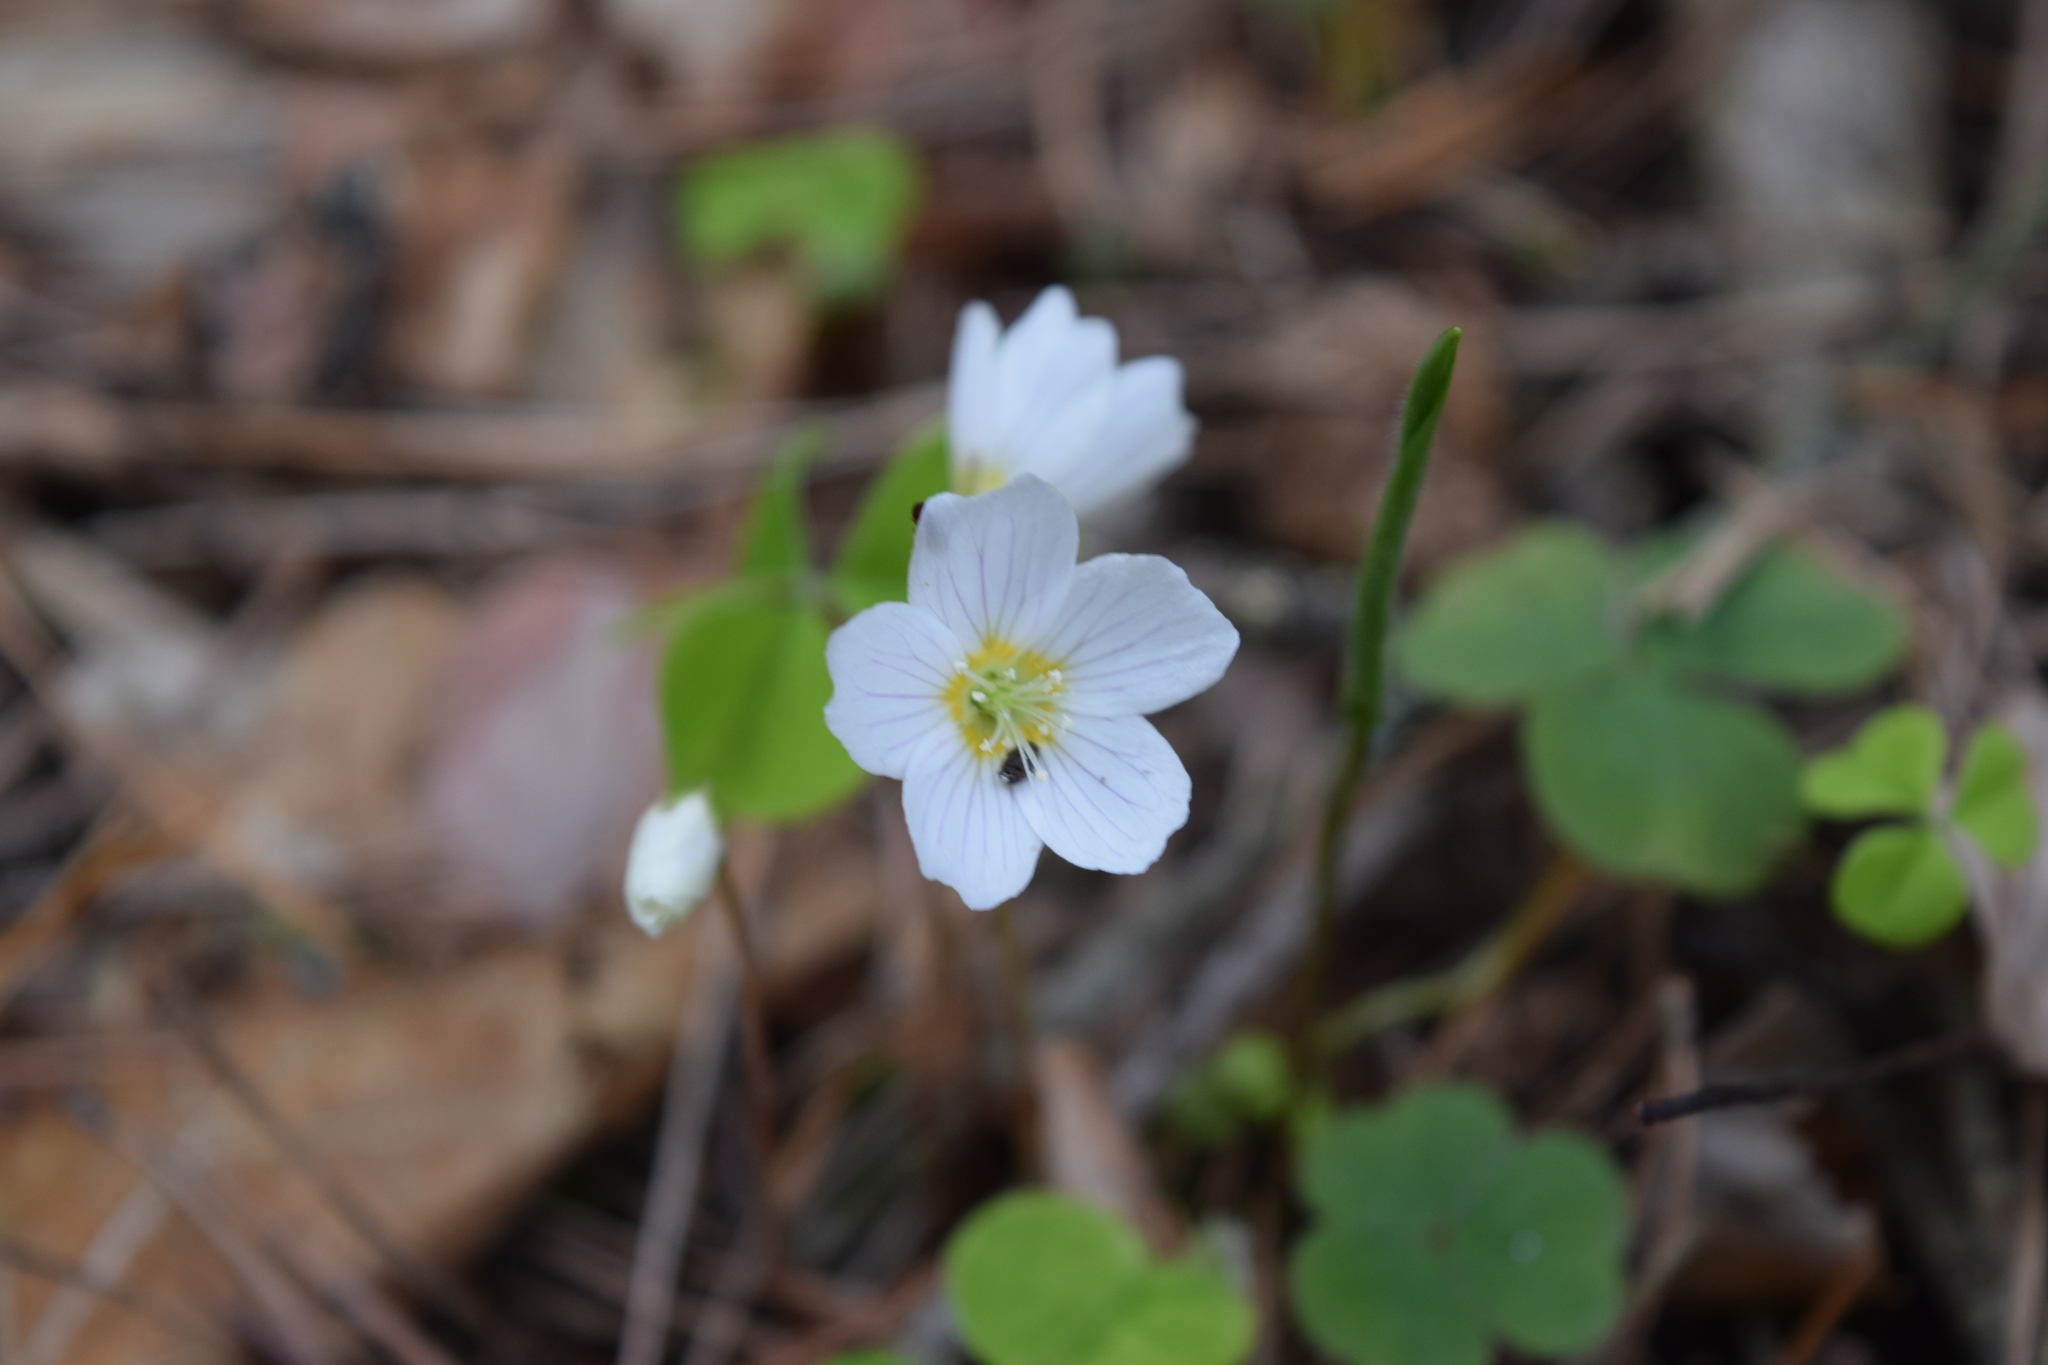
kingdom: Plantae
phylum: Tracheophyta
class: Magnoliopsida
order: Oxalidales
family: Oxalidaceae
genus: Oxalis
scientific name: Oxalis acetosella
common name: Wood-sorrel
